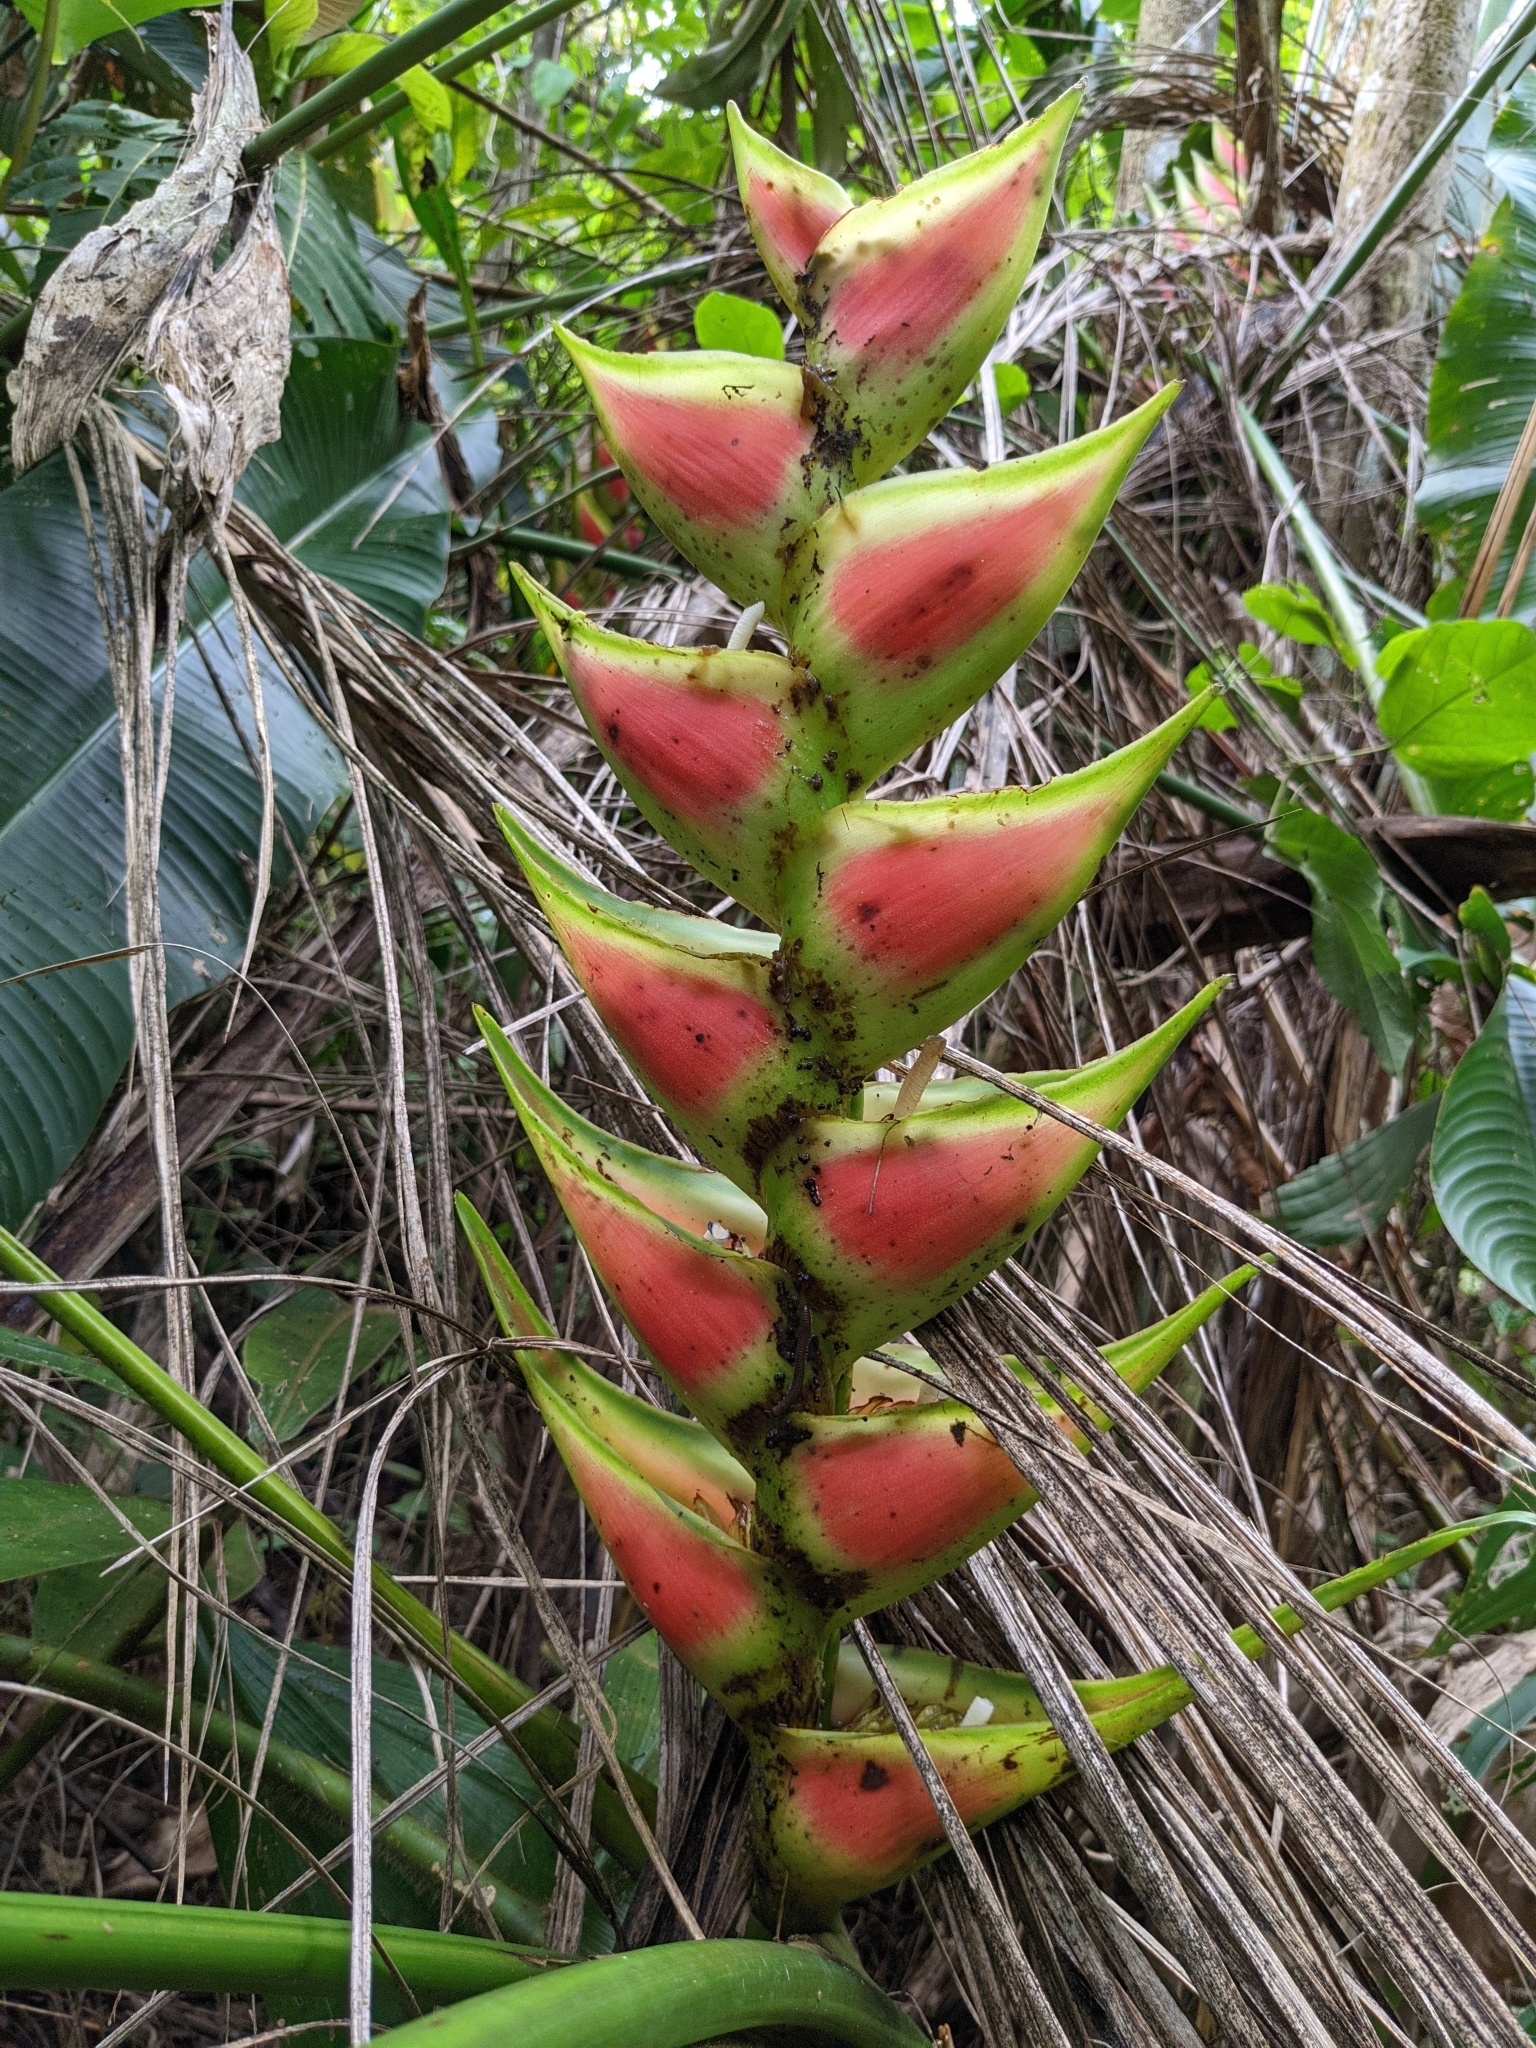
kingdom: Plantae
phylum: Tracheophyta
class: Liliopsida
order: Zingiberales
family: Heliconiaceae
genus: Heliconia
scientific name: Heliconia wagneriana
